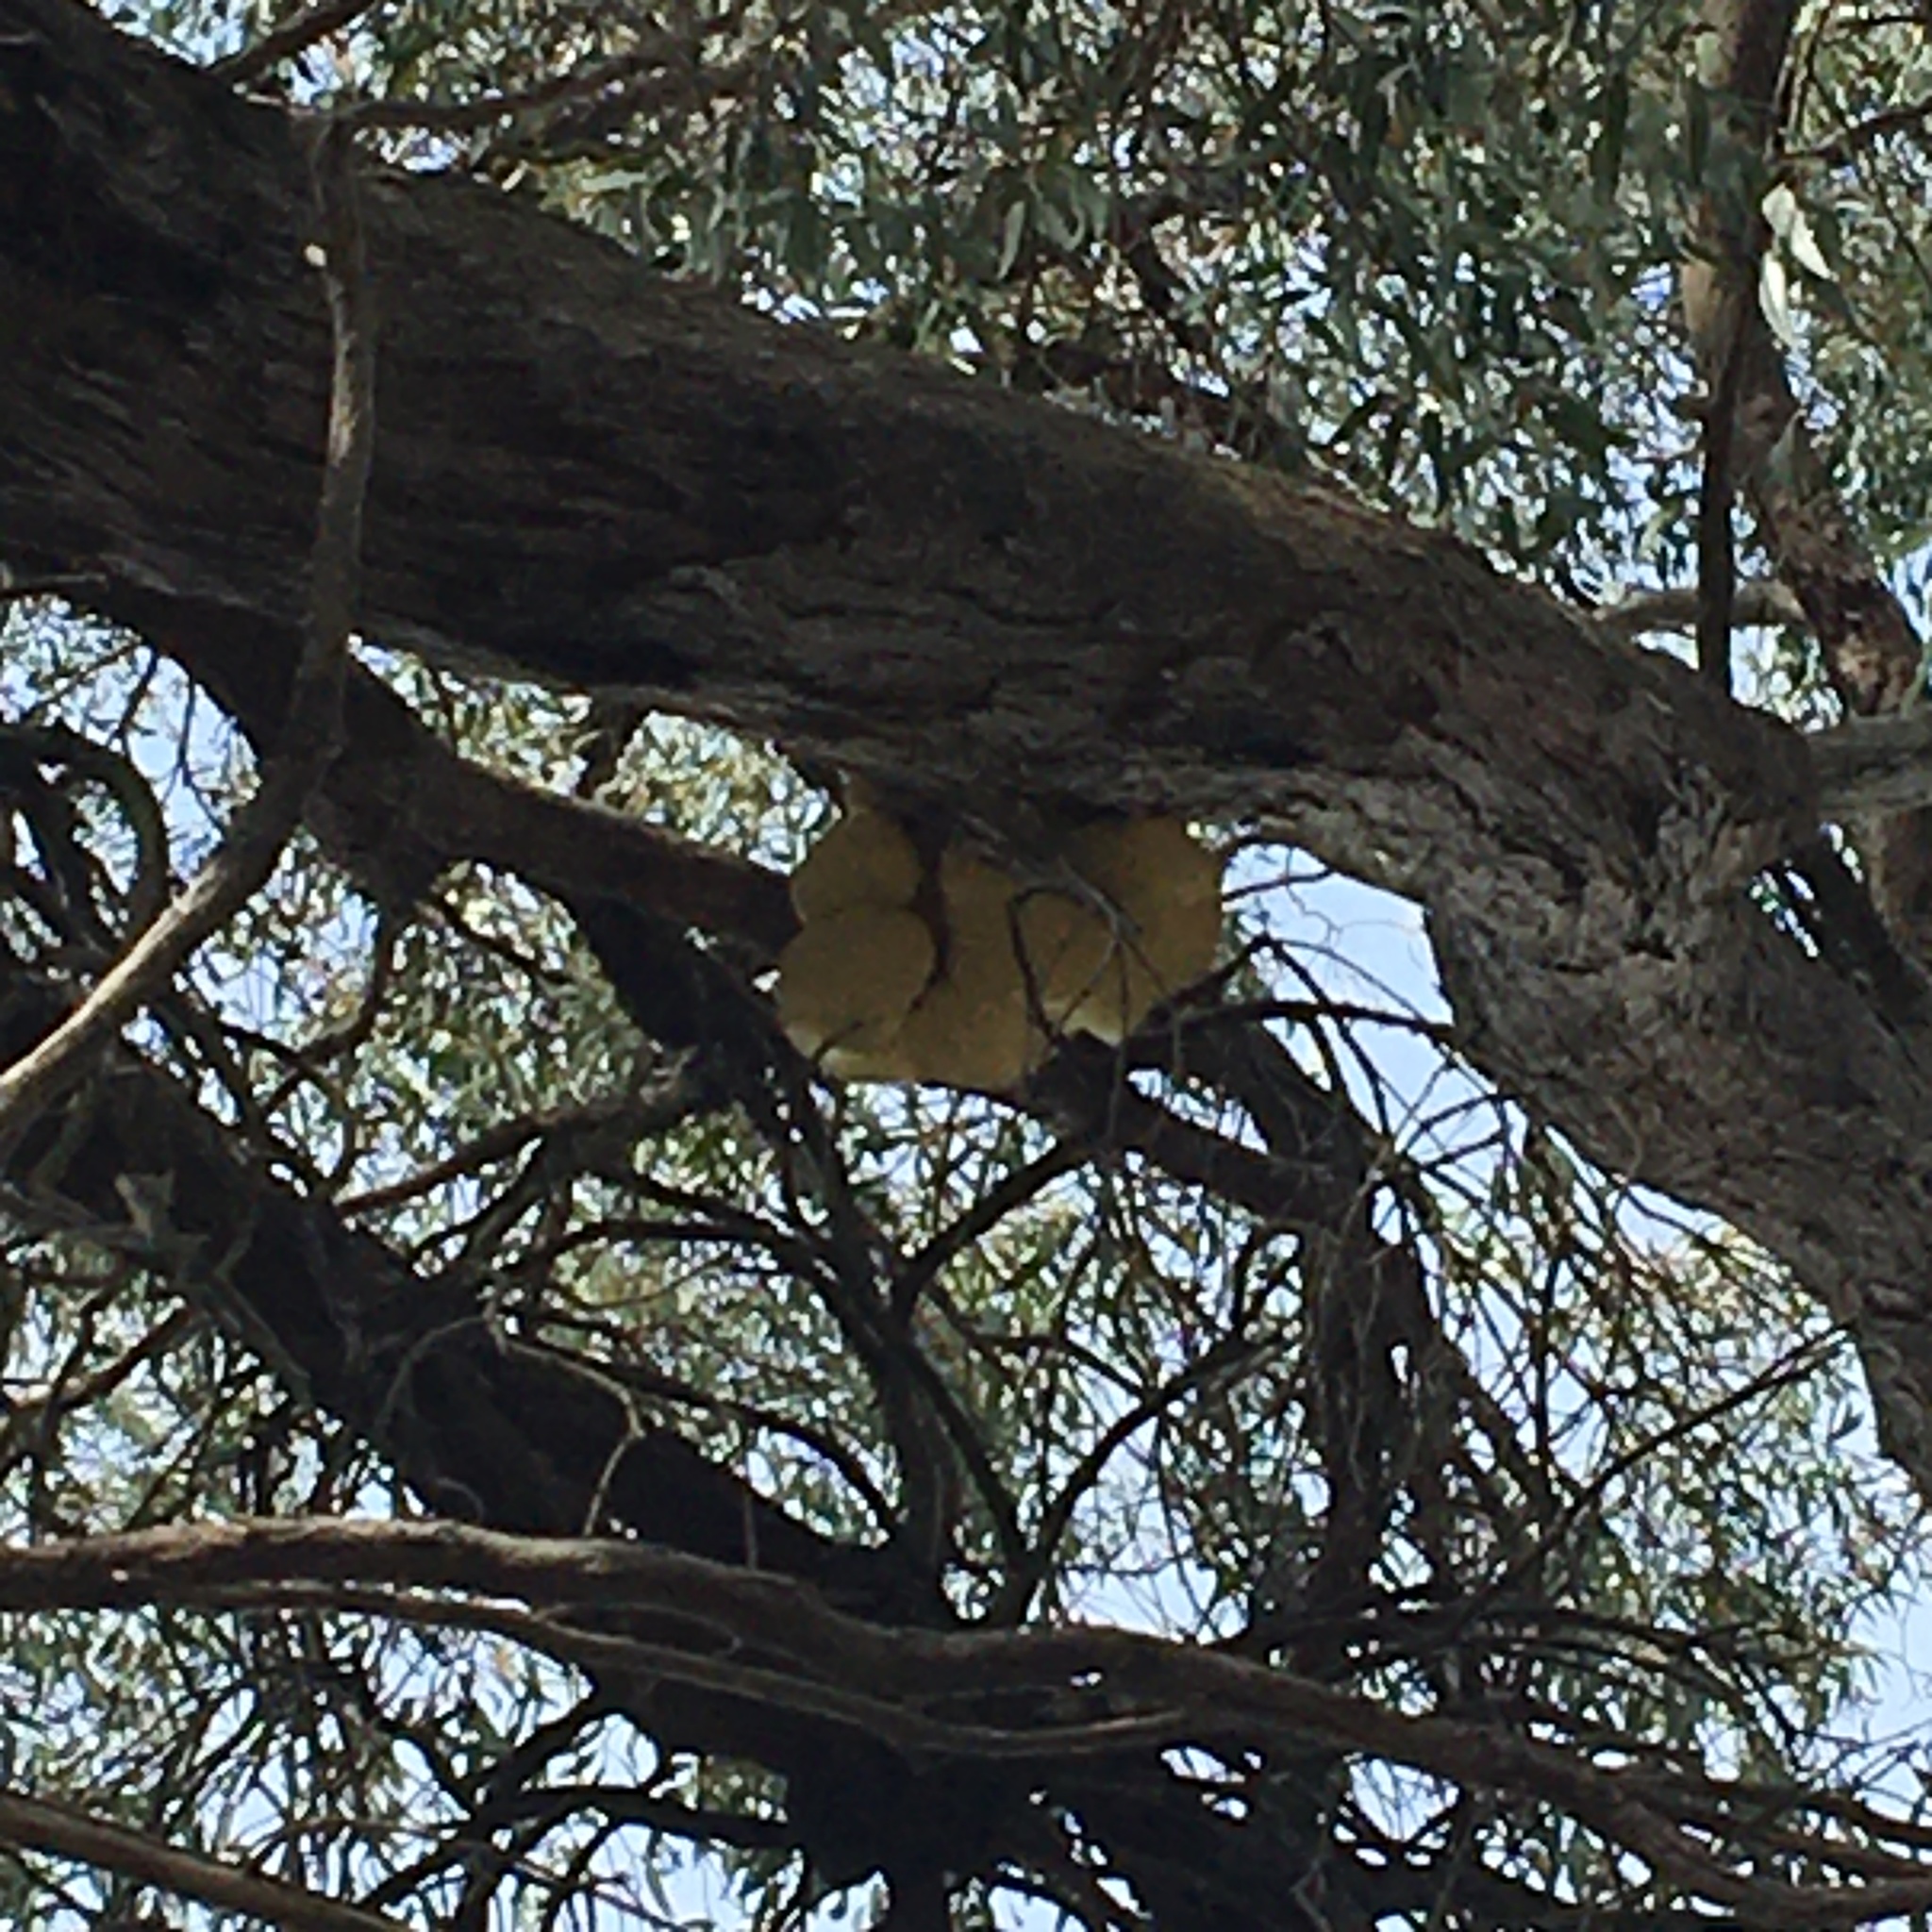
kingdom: Fungi
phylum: Basidiomycota
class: Agaricomycetes
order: Polyporales
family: Laetiporaceae
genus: Laetiporus
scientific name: Laetiporus portentosus
